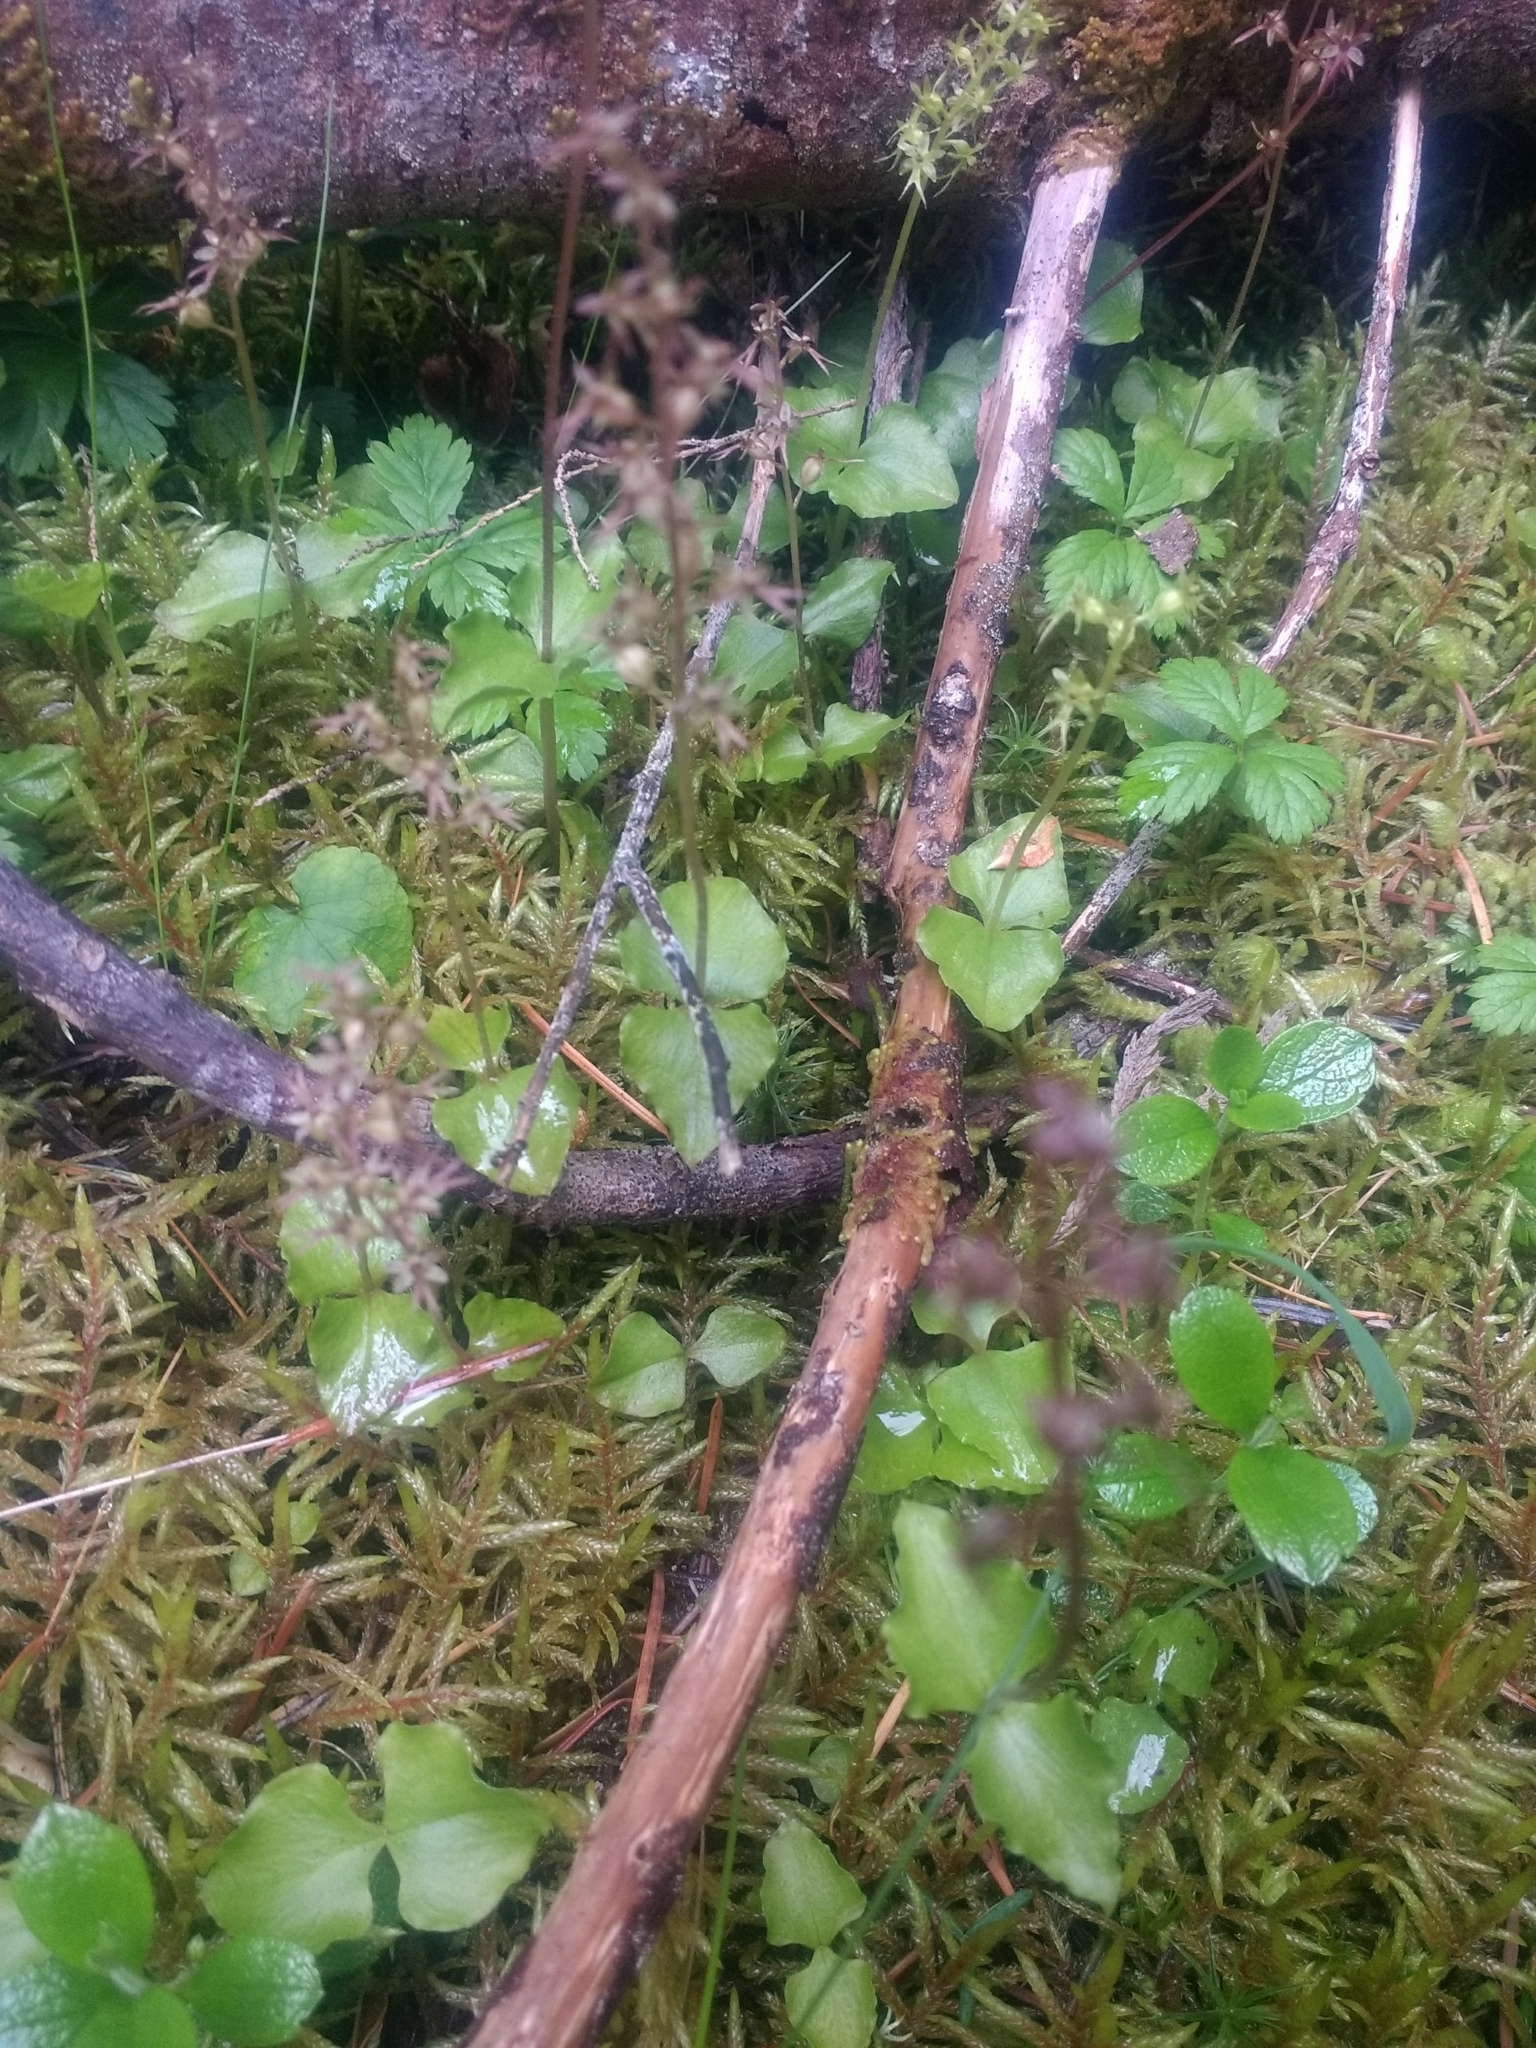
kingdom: Plantae
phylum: Tracheophyta
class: Liliopsida
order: Asparagales
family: Orchidaceae
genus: Neottia
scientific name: Neottia cordata
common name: Lesser twayblade
